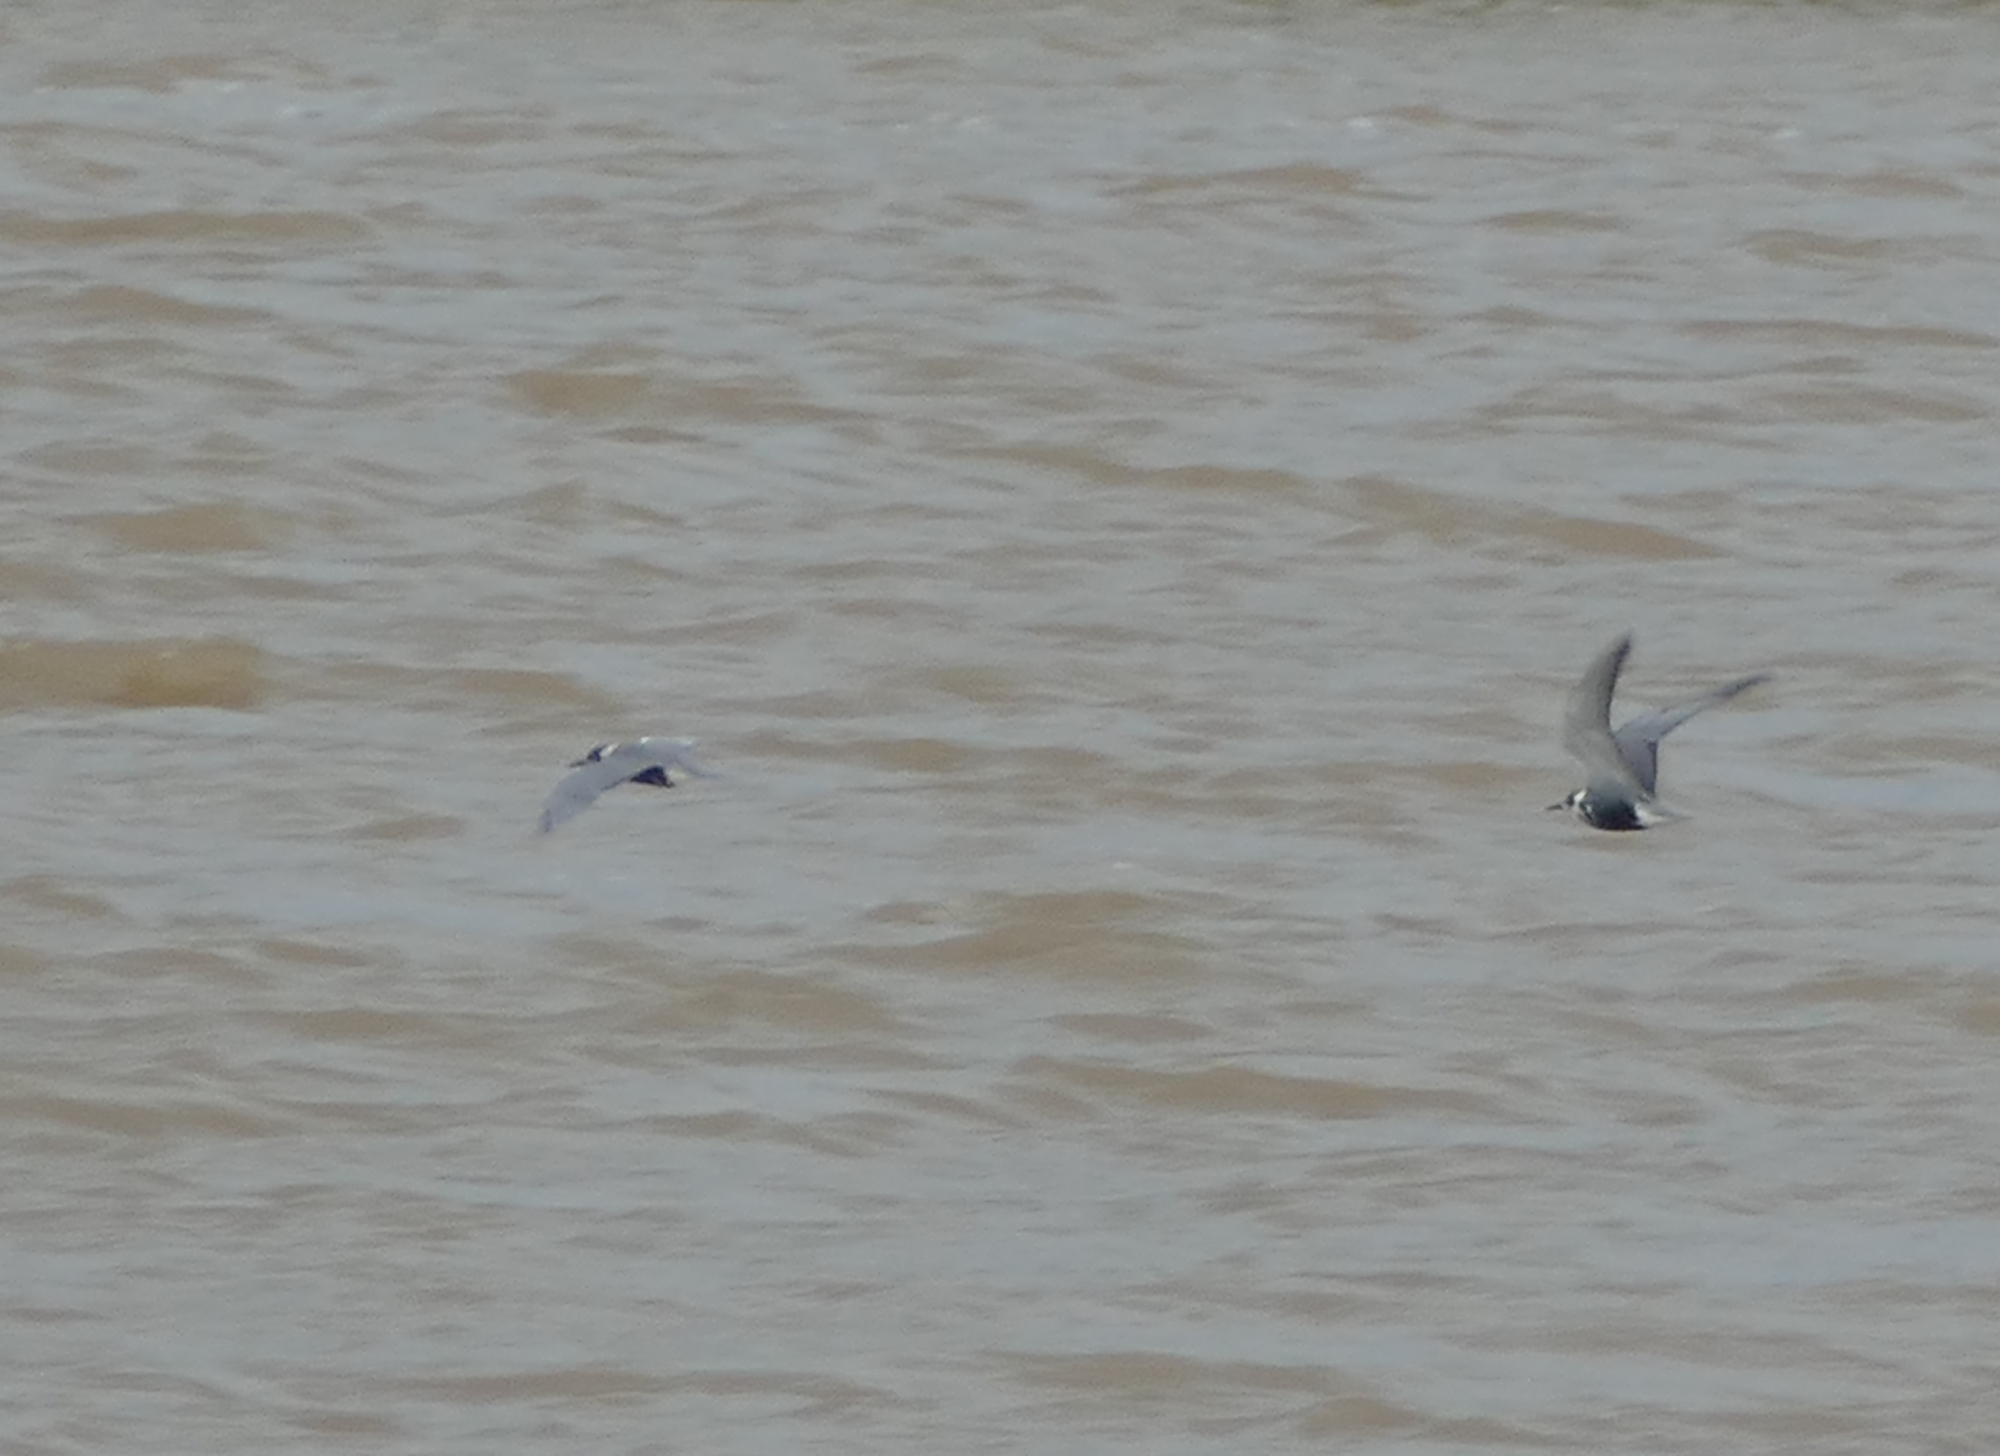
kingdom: Animalia
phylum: Chordata
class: Aves
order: Charadriiformes
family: Laridae
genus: Chlidonias
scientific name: Chlidonias niger
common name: Black tern
